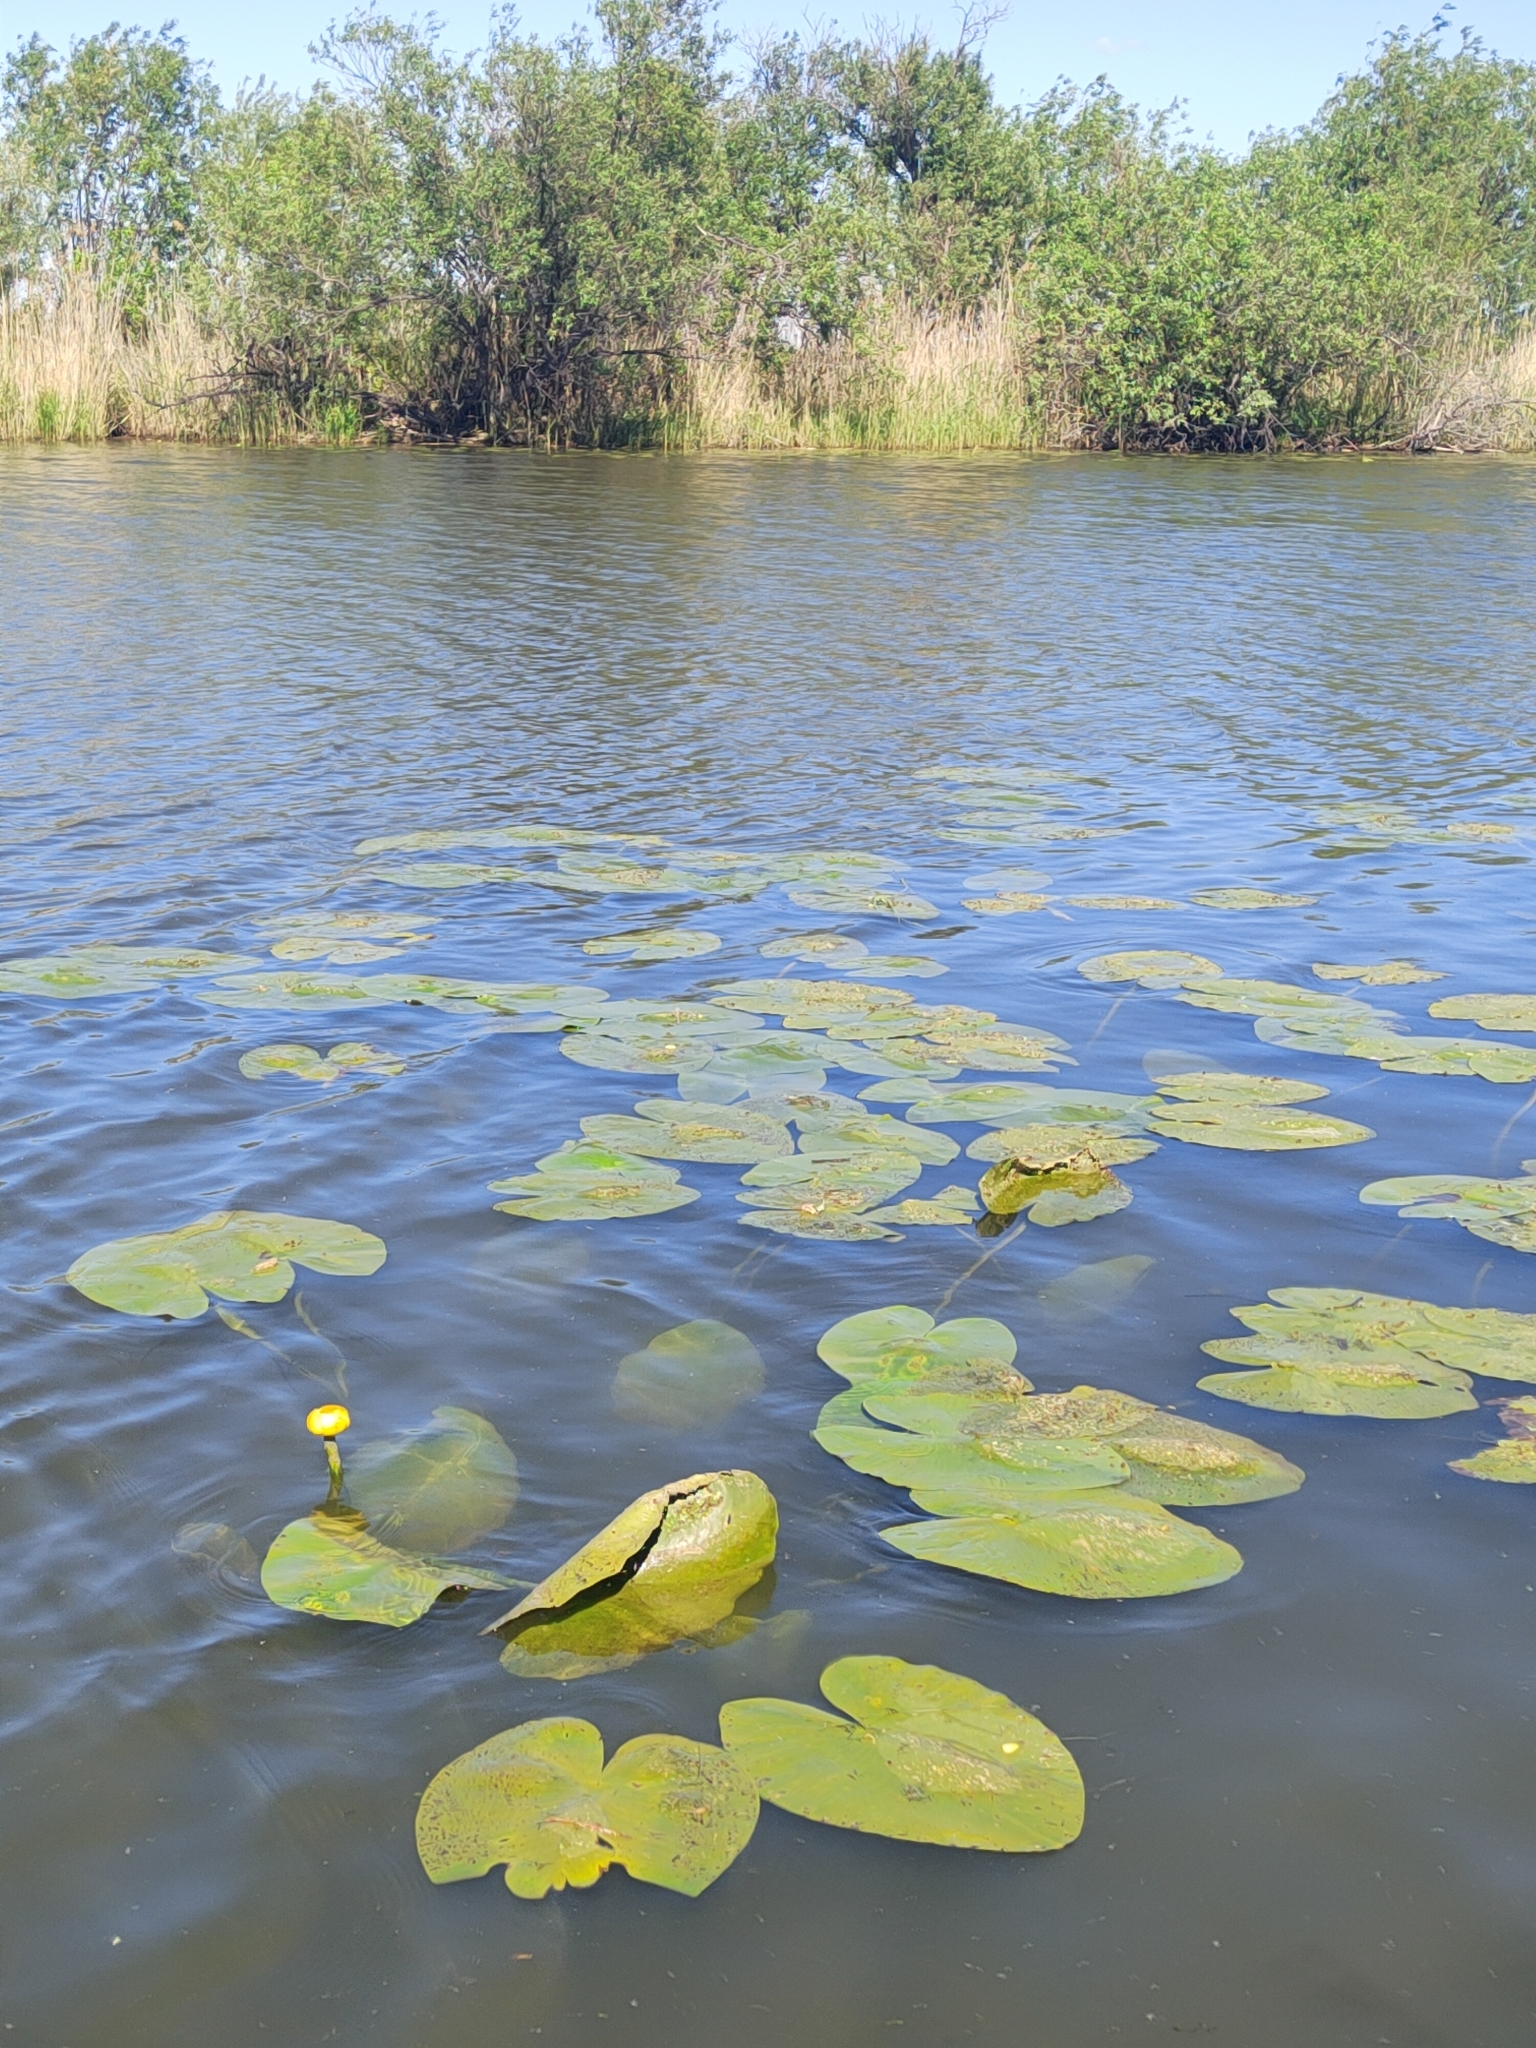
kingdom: Plantae
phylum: Tracheophyta
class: Magnoliopsida
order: Nymphaeales
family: Nymphaeaceae
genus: Nuphar
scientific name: Nuphar lutea
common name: Yellow water-lily
